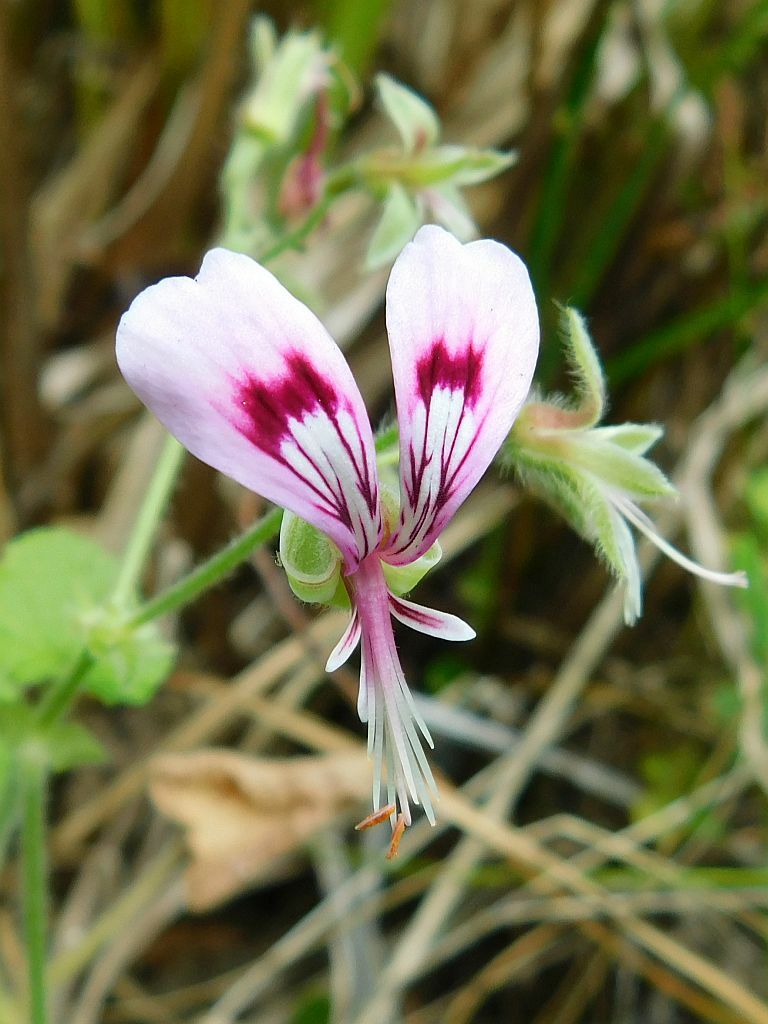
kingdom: Plantae
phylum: Tracheophyta
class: Magnoliopsida
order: Geraniales
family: Geraniaceae
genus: Pelargonium
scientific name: Pelargonium papilionaceum
